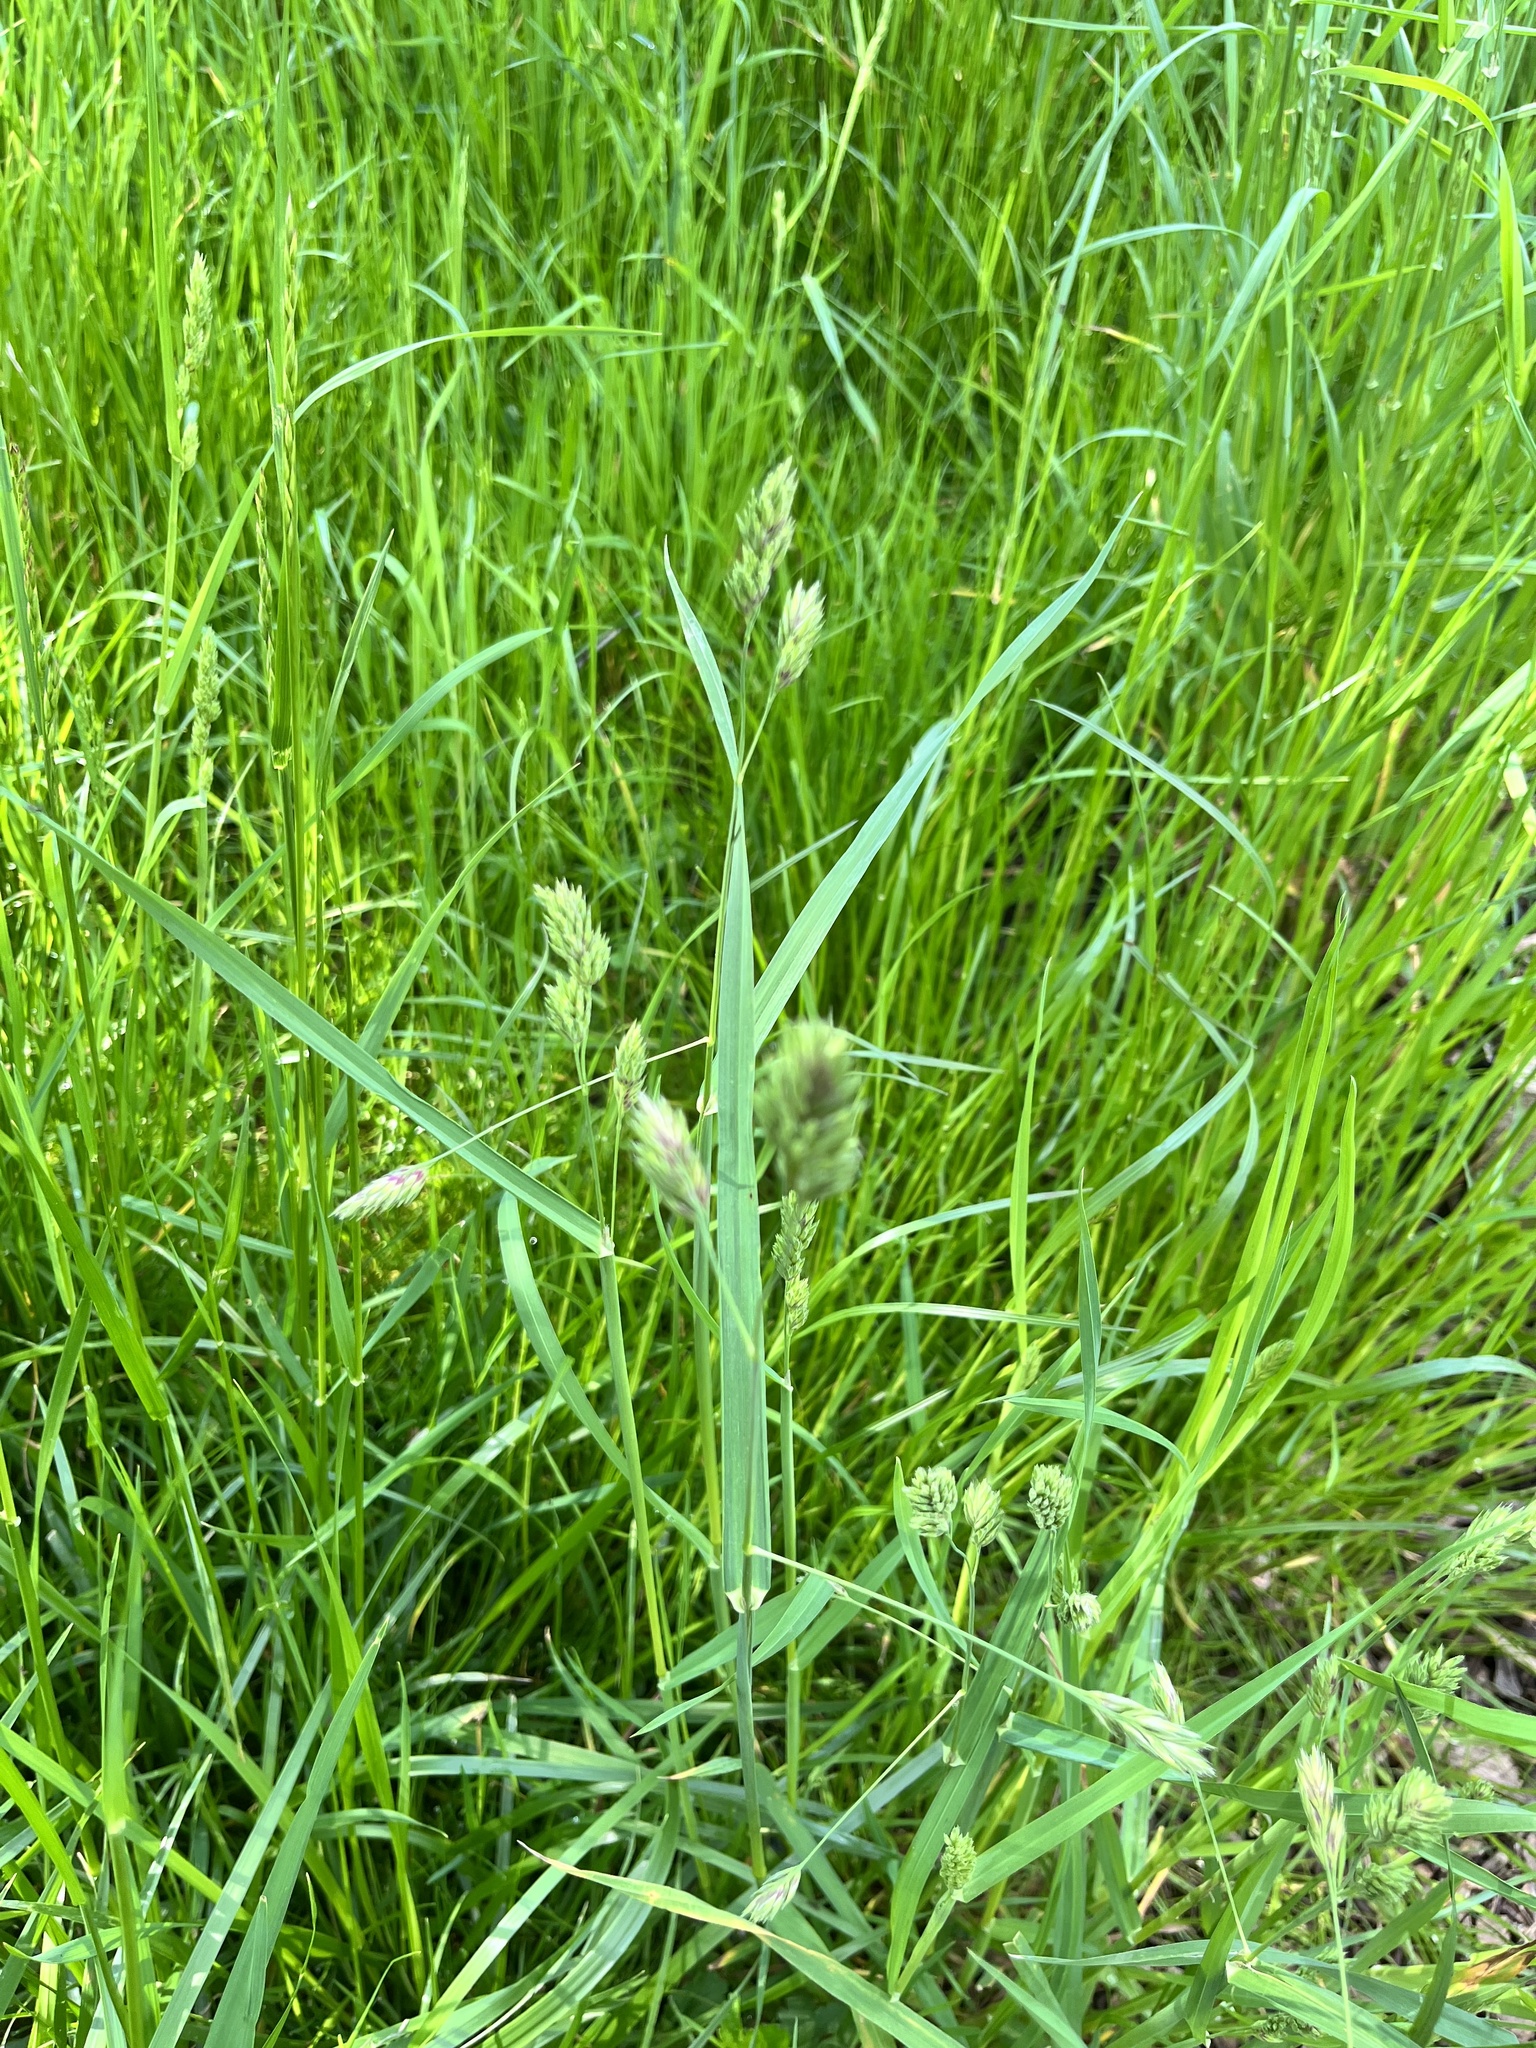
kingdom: Plantae
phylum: Tracheophyta
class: Liliopsida
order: Poales
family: Poaceae
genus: Dactylis
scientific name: Dactylis glomerata
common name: Orchardgrass
